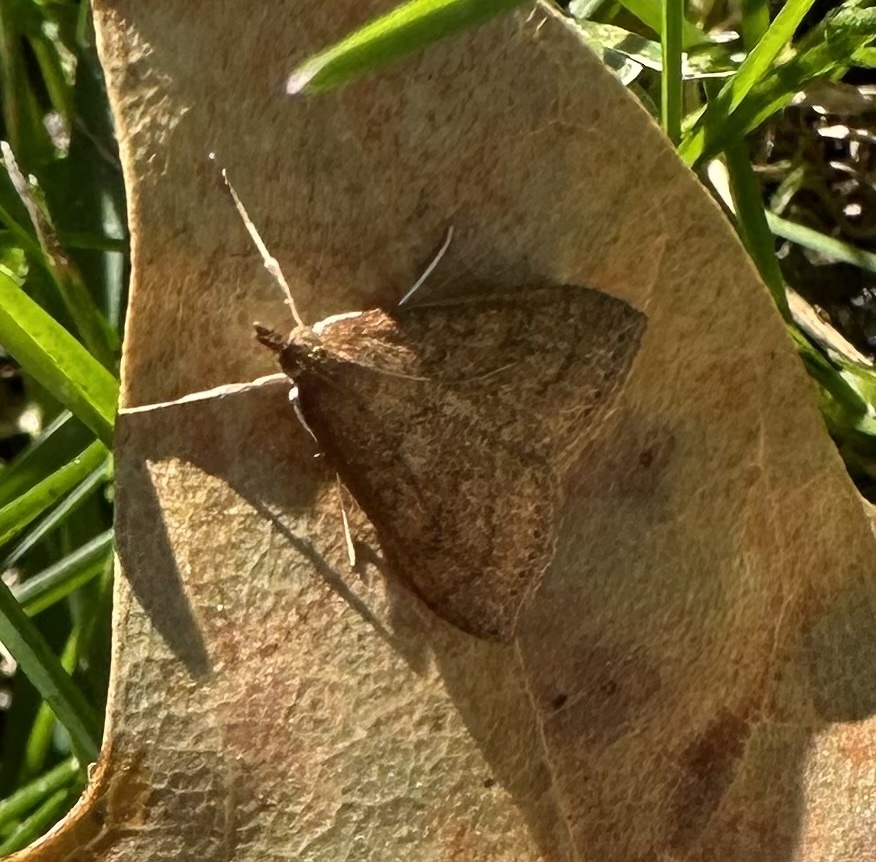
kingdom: Animalia
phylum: Arthropoda
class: Insecta
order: Lepidoptera
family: Crambidae
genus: Udea
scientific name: Udea rubigalis
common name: Celery leaftier moth
